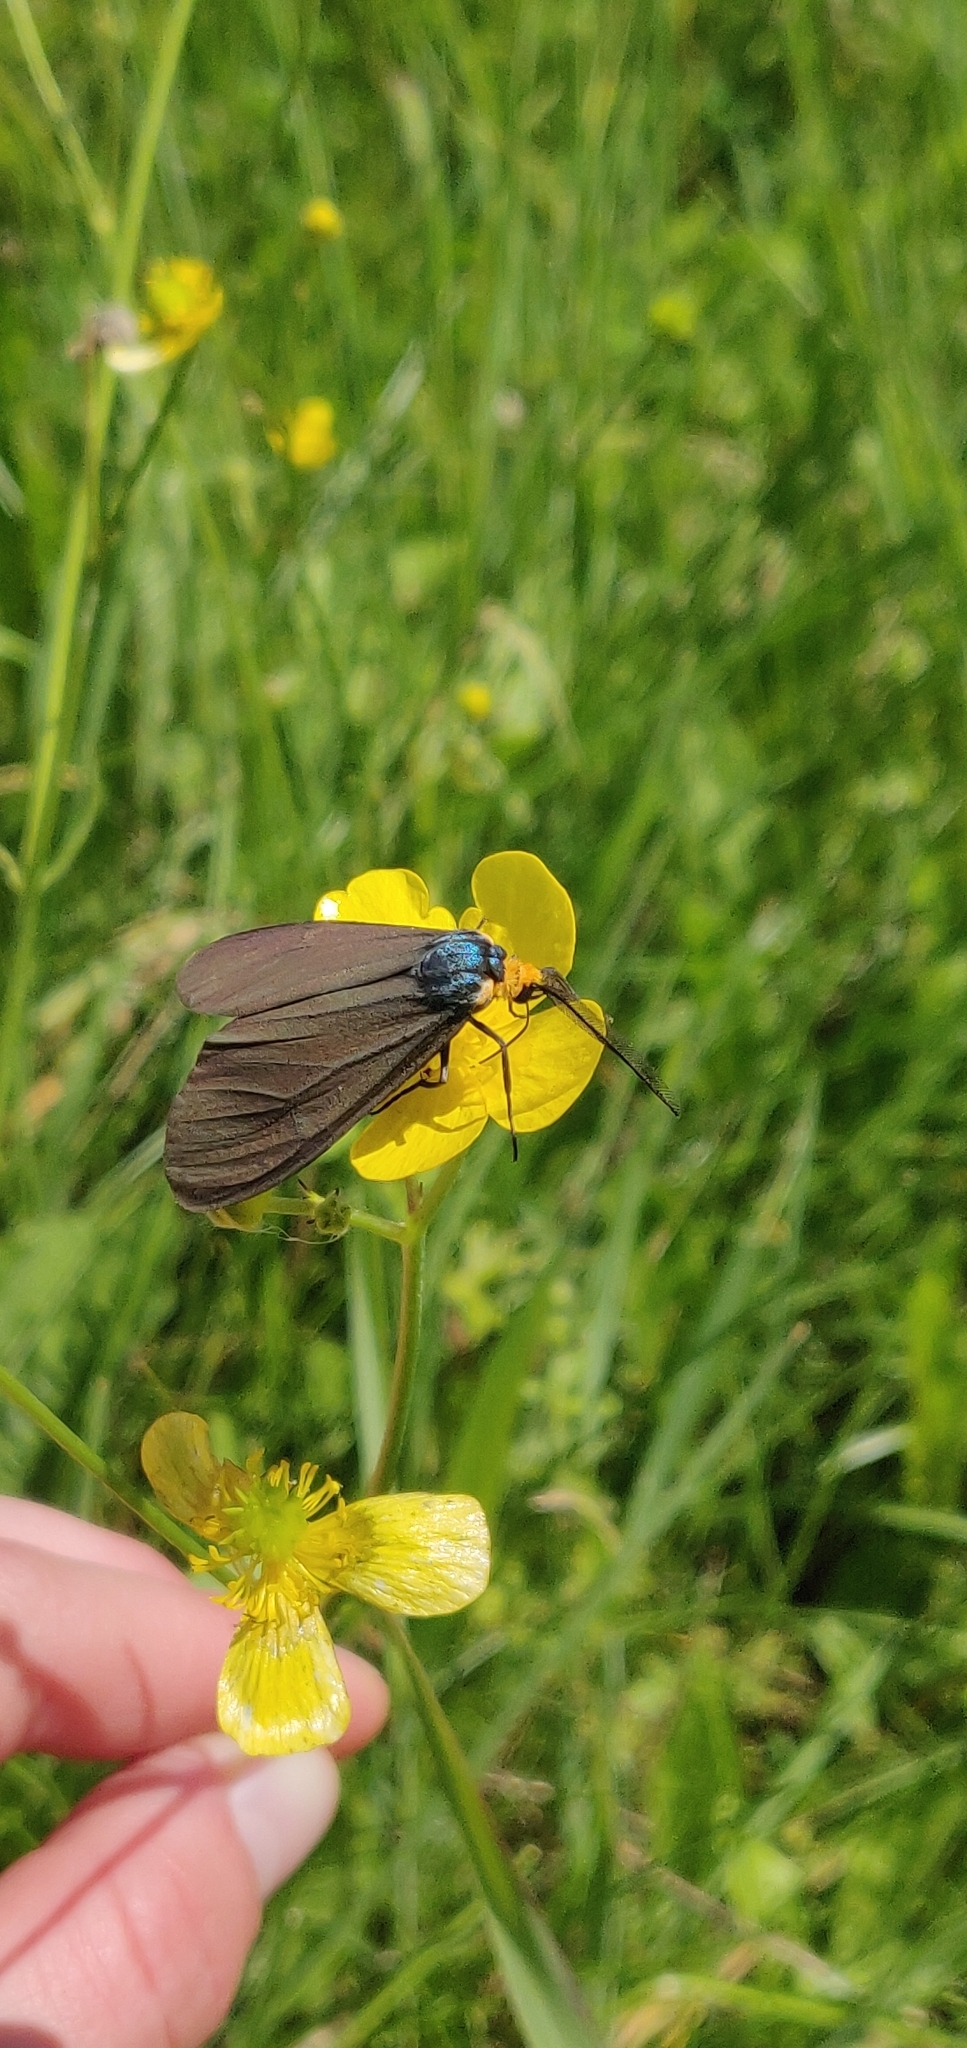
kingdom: Animalia
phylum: Arthropoda
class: Insecta
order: Lepidoptera
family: Erebidae
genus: Ctenucha
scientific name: Ctenucha virginica
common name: Virginia ctenucha moth
